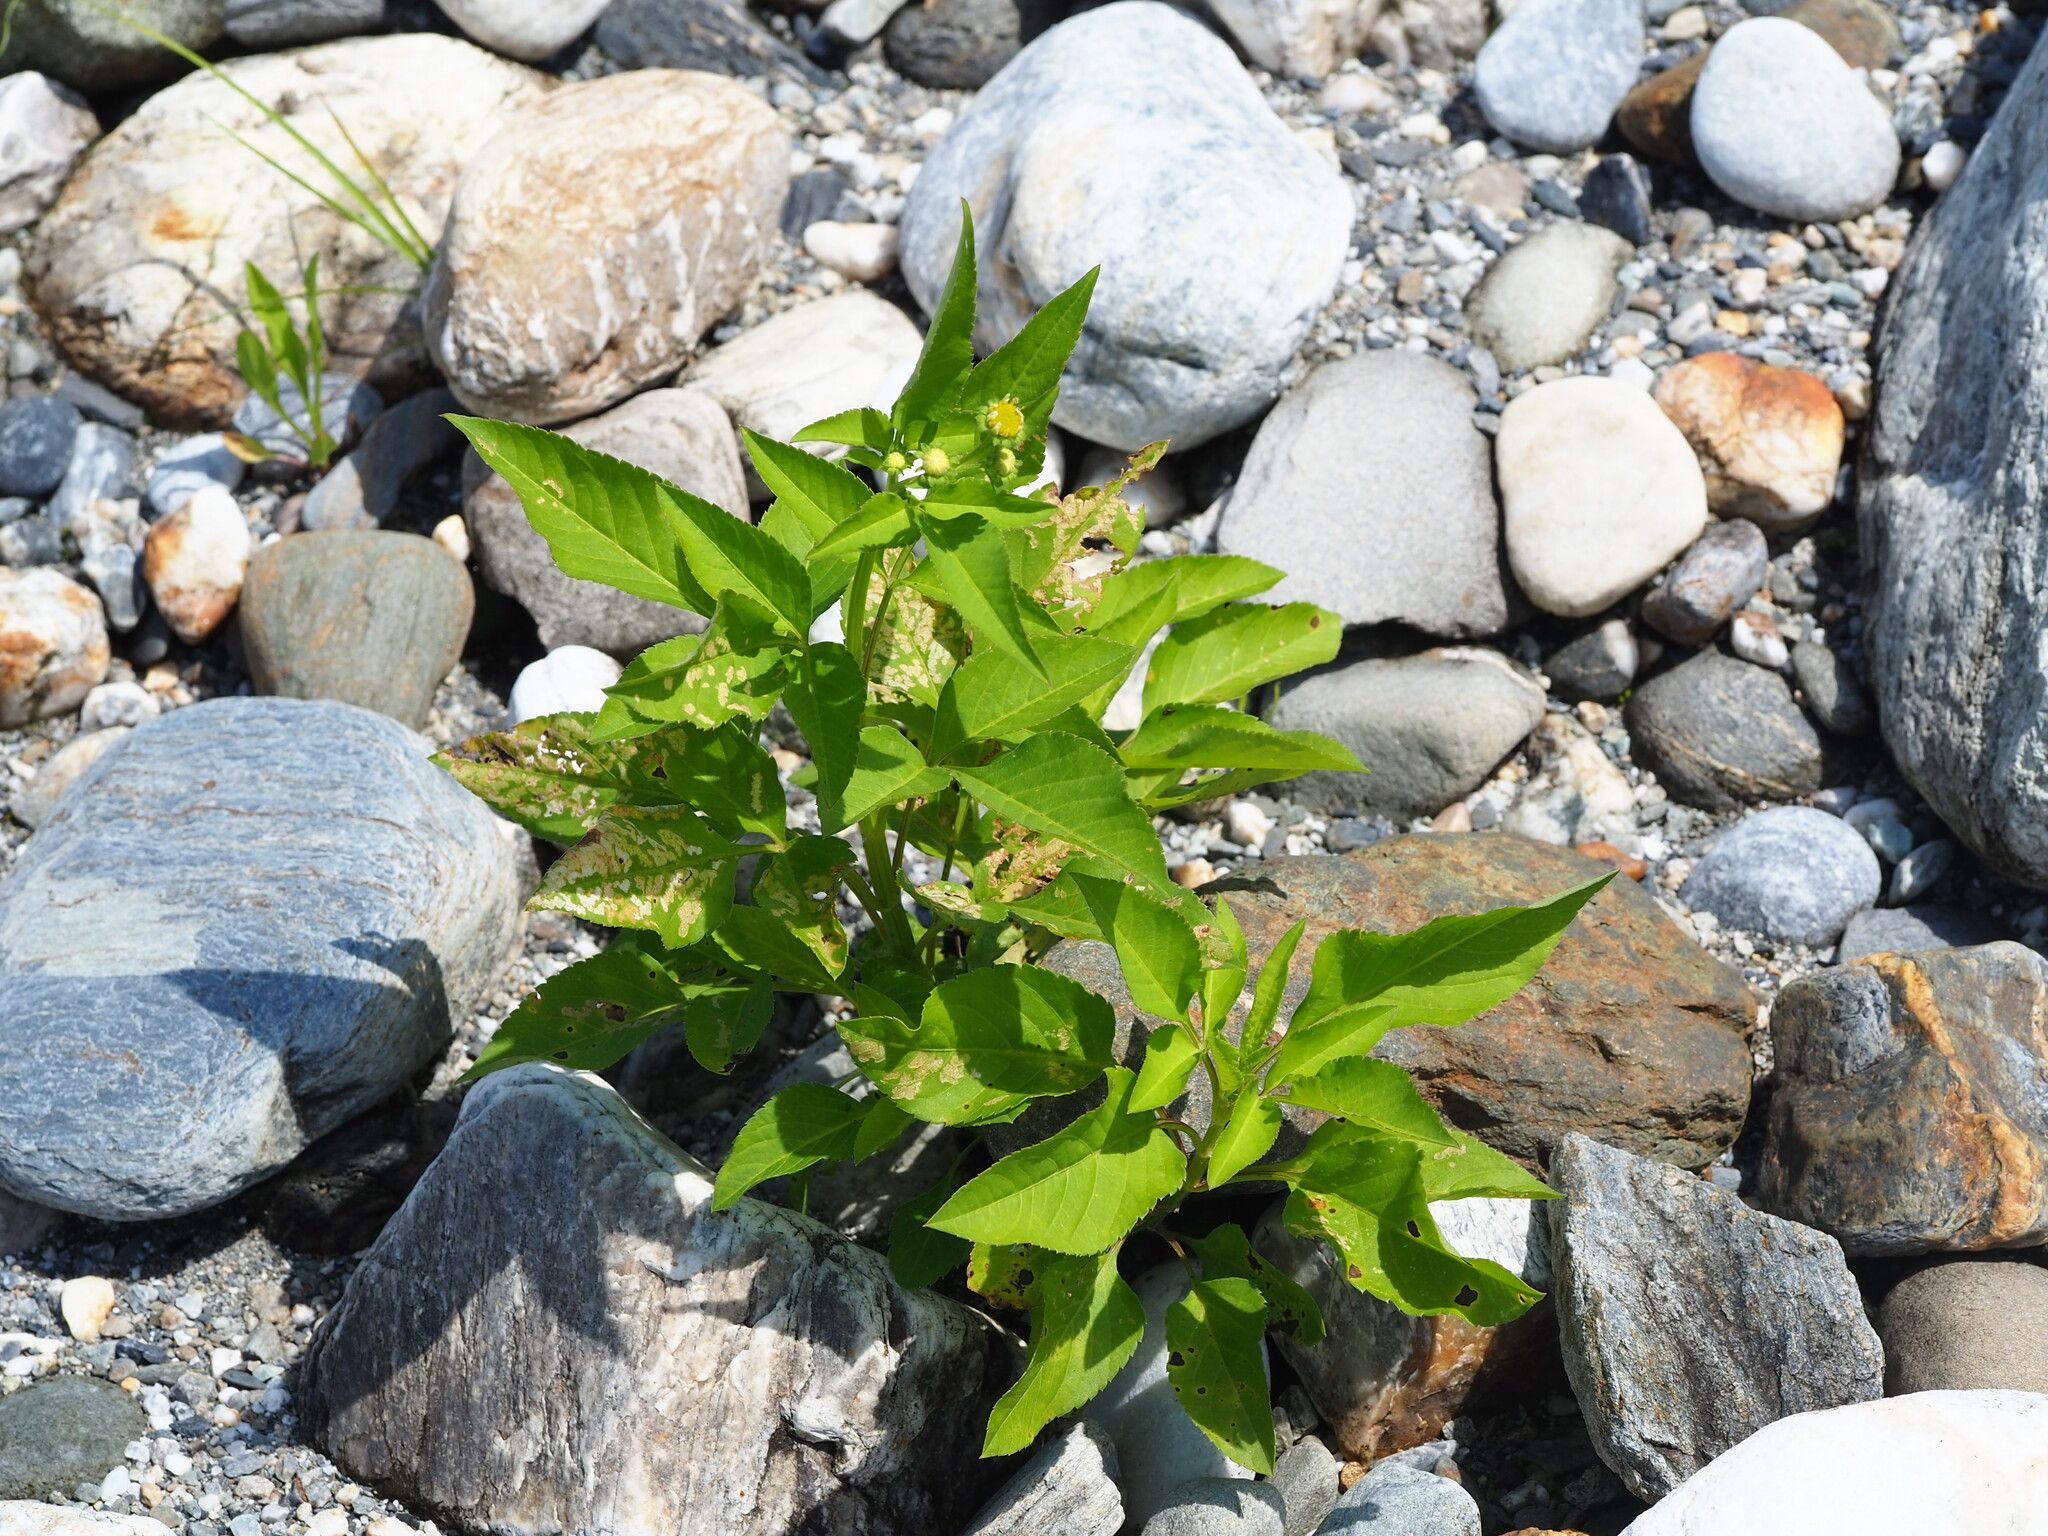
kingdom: Plantae
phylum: Tracheophyta
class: Magnoliopsida
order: Asterales
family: Asteraceae
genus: Bidens
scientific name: Bidens alba
